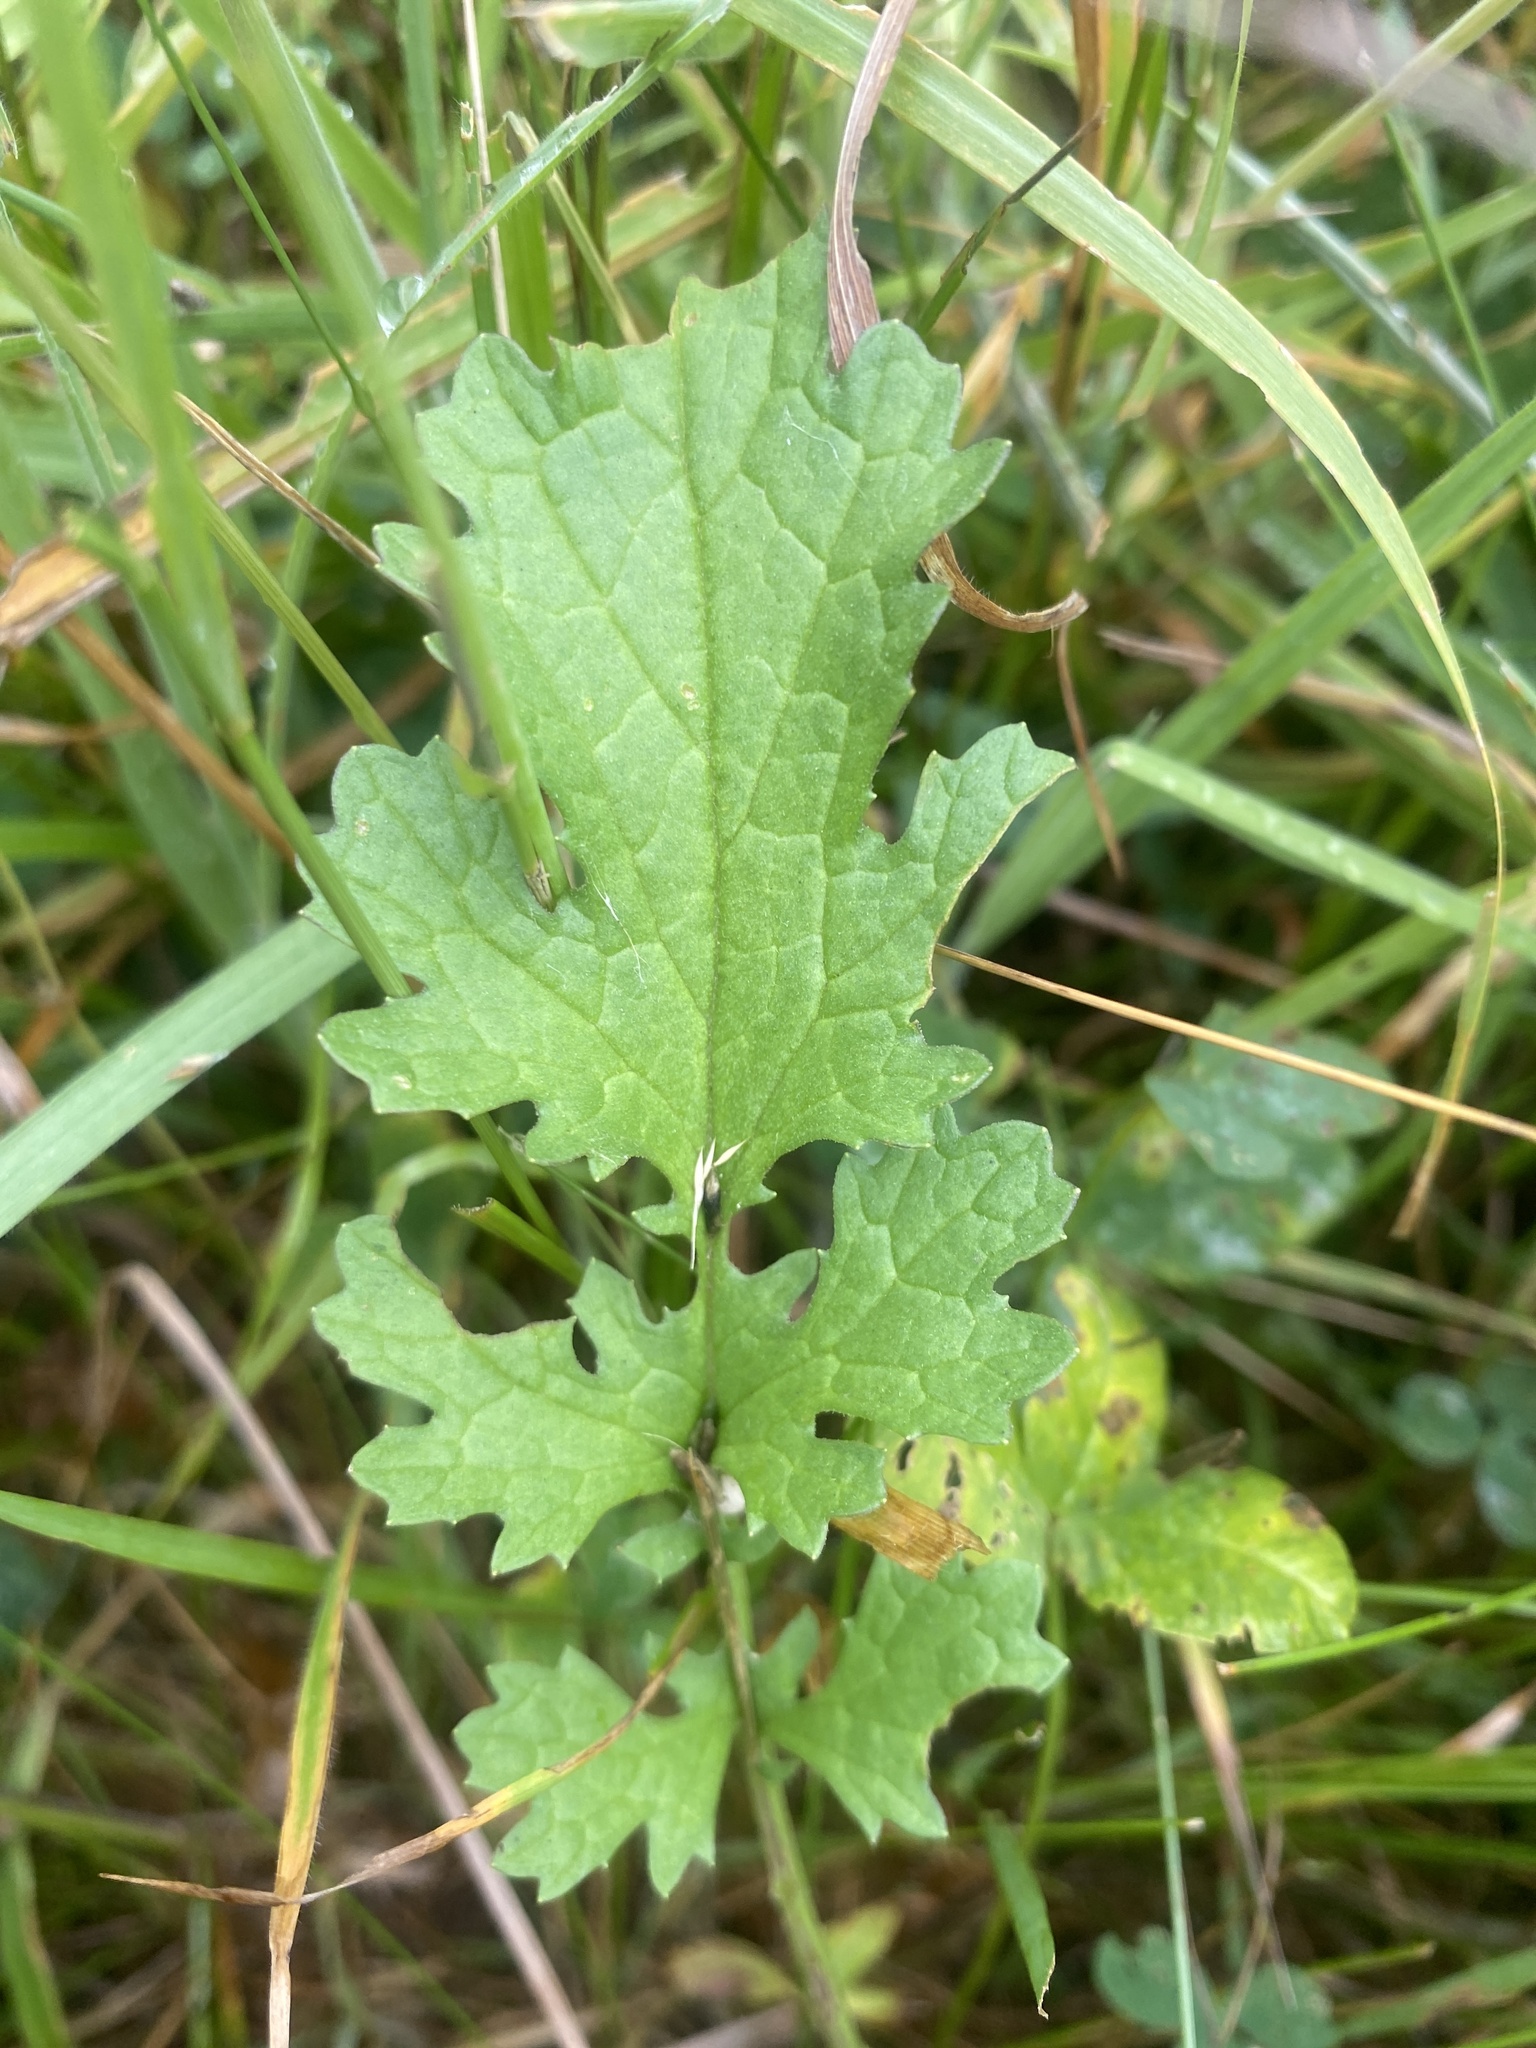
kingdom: Plantae
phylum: Tracheophyta
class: Magnoliopsida
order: Asterales
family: Asteraceae
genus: Jacobaea
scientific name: Jacobaea vulgaris
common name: Stinking willie
